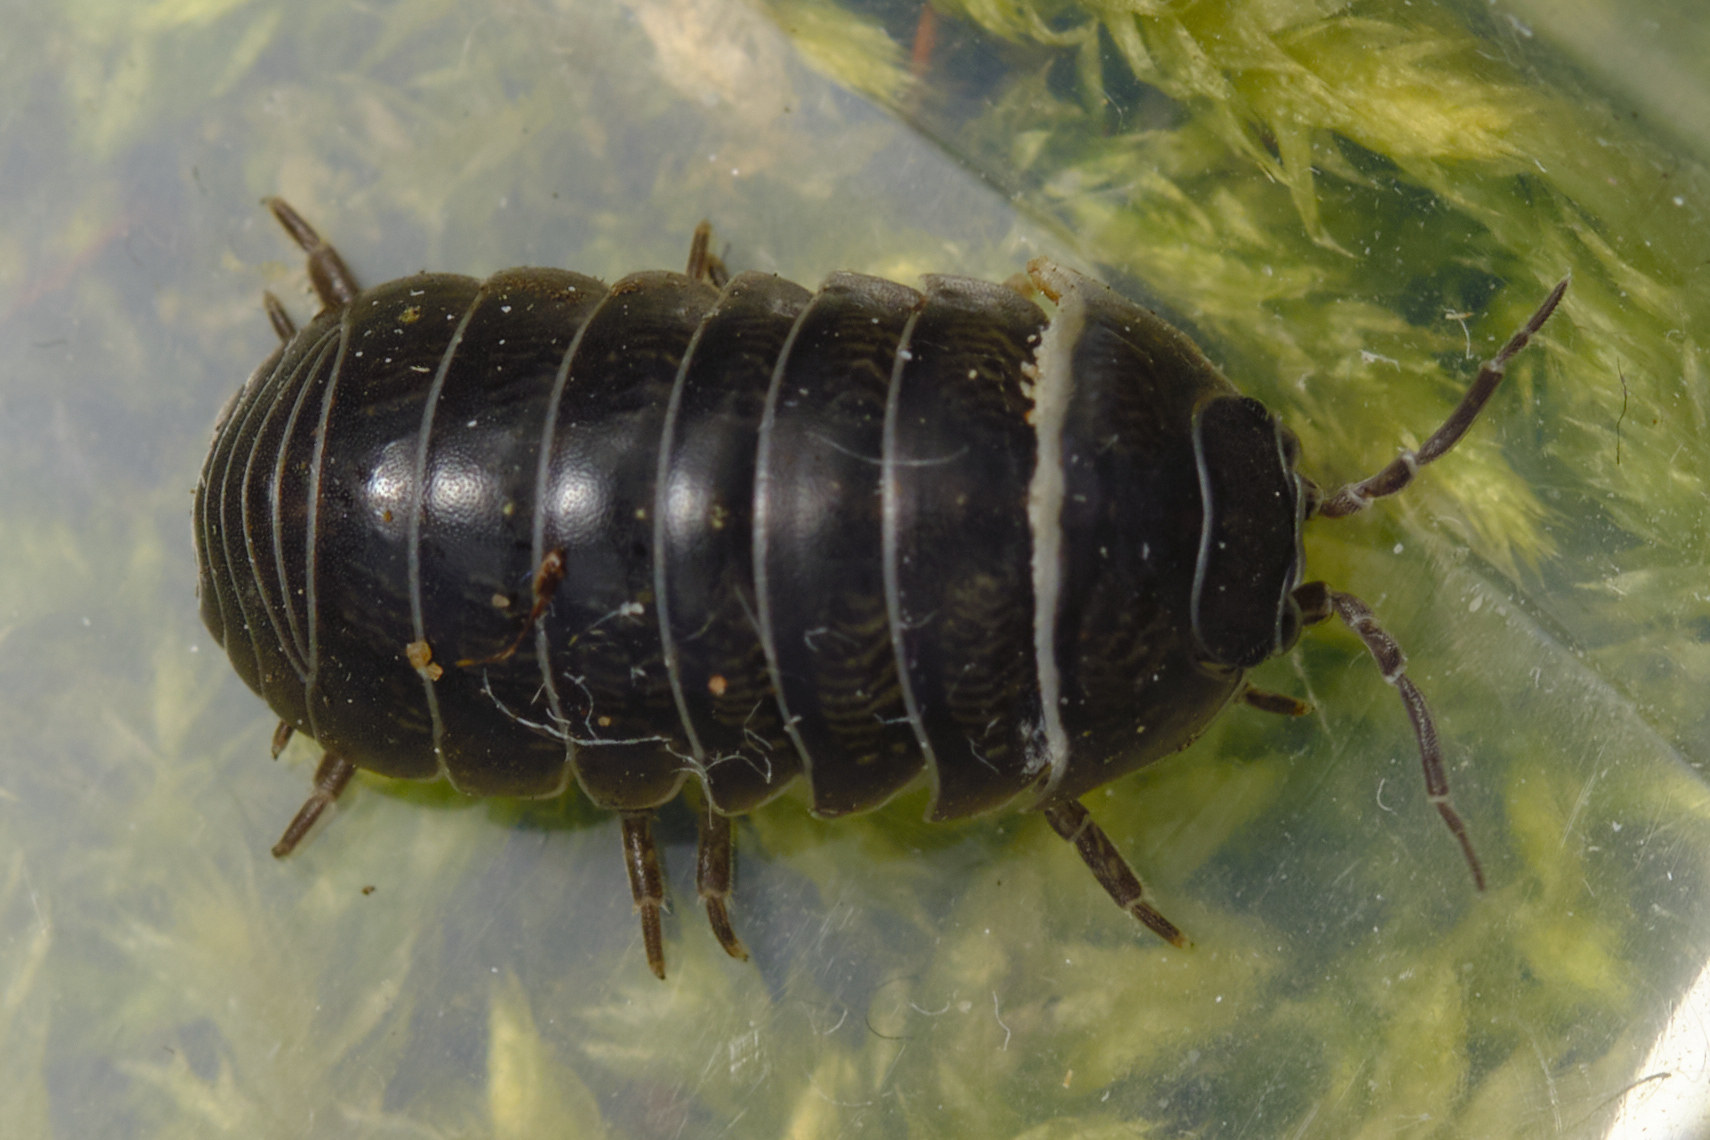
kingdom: Animalia
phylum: Arthropoda
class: Malacostraca
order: Isopoda
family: Armadillidiidae
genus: Armadillidium
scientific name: Armadillidium vulgare
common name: Common pill woodlouse
